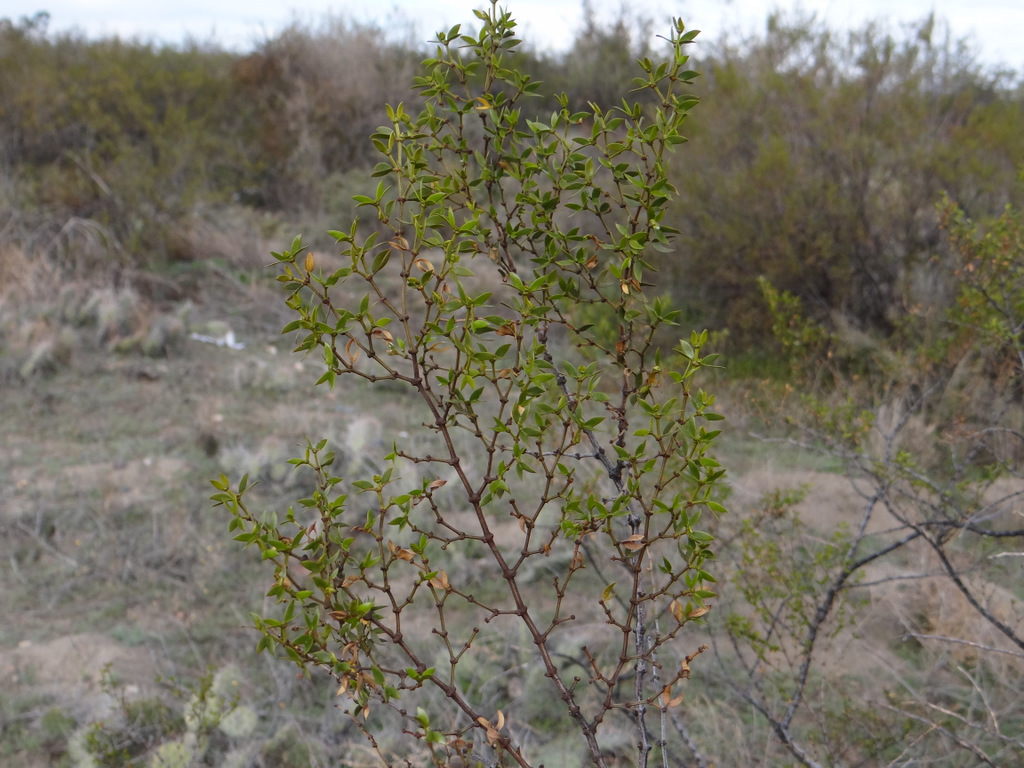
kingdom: Plantae
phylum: Tracheophyta
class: Magnoliopsida
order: Zygophyllales
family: Zygophyllaceae
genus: Larrea
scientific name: Larrea divaricata
